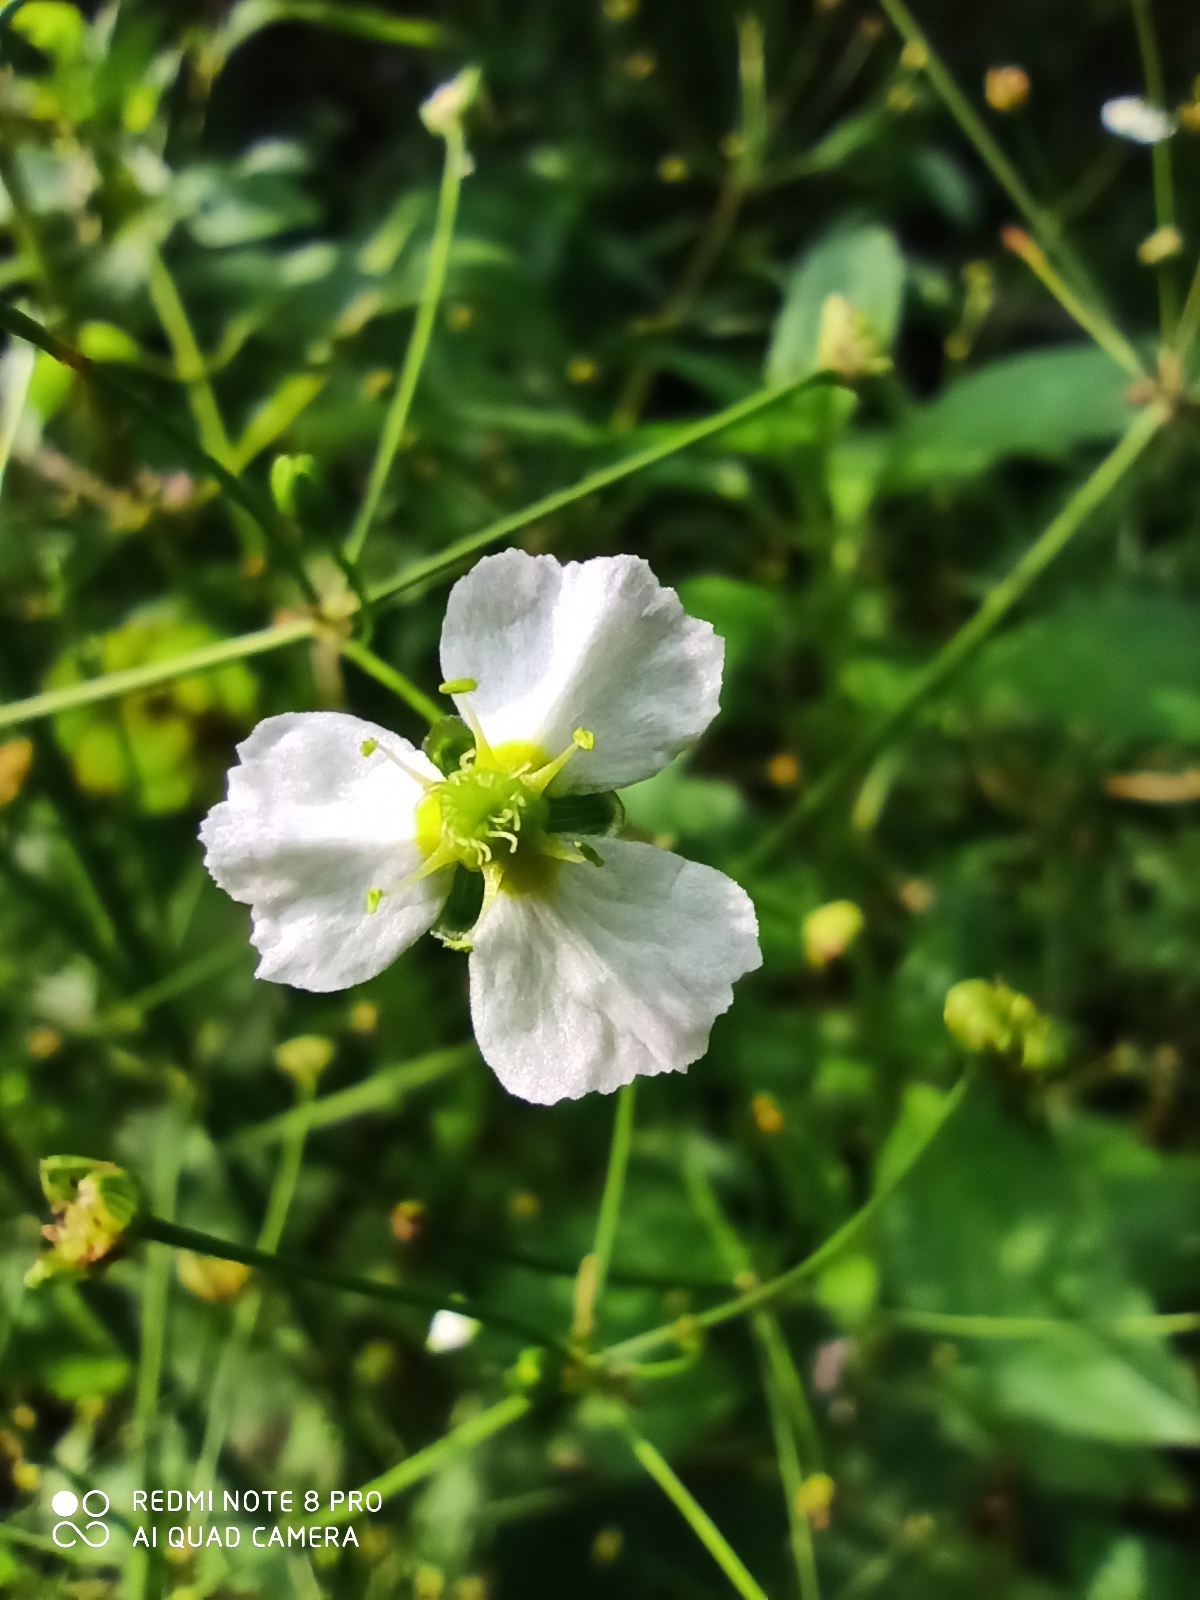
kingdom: Plantae
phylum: Tracheophyta
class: Liliopsida
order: Alismatales
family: Alismataceae
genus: Alisma
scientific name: Alisma plantago-aquatica
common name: Water-plantain
